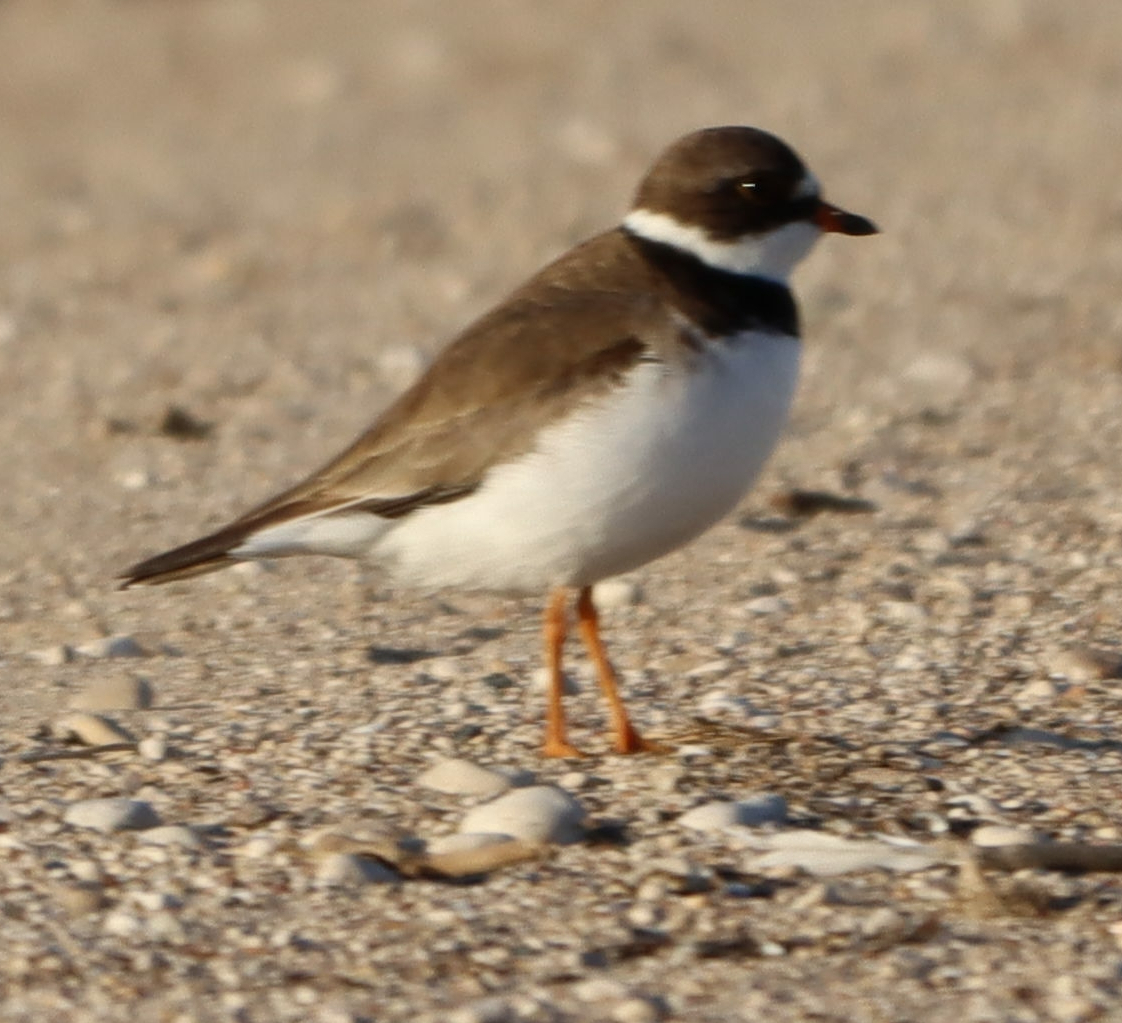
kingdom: Animalia
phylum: Chordata
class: Aves
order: Charadriiformes
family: Charadriidae
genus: Charadrius
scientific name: Charadrius semipalmatus
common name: Semipalmated plover
